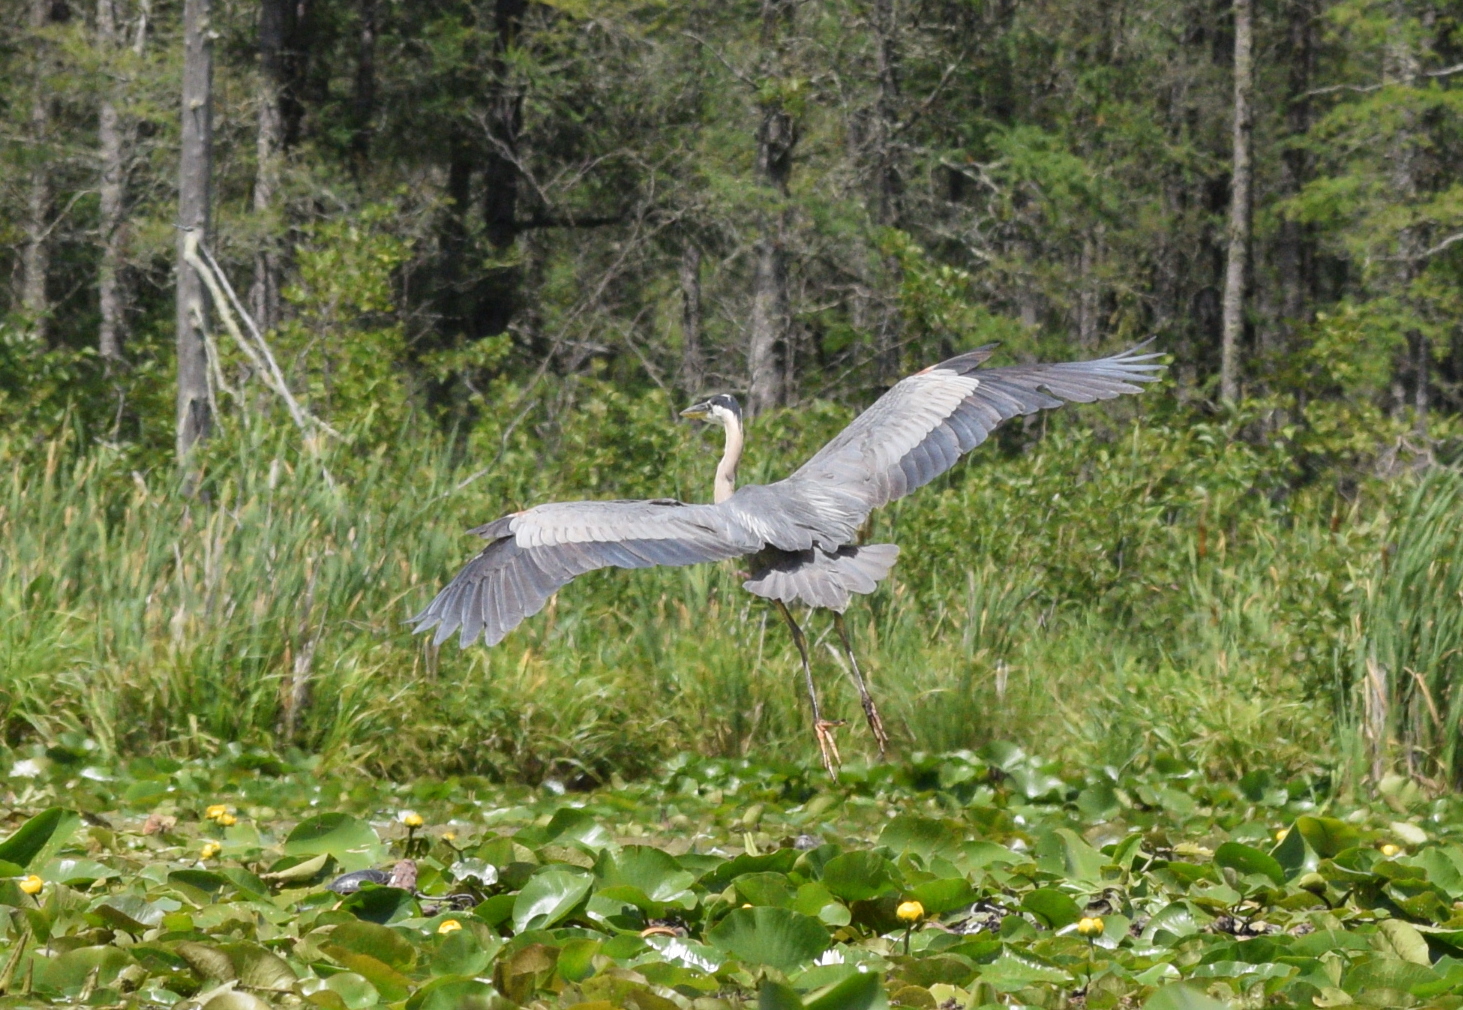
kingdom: Animalia
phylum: Chordata
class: Aves
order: Pelecaniformes
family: Ardeidae
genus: Ardea
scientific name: Ardea herodias
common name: Great blue heron
